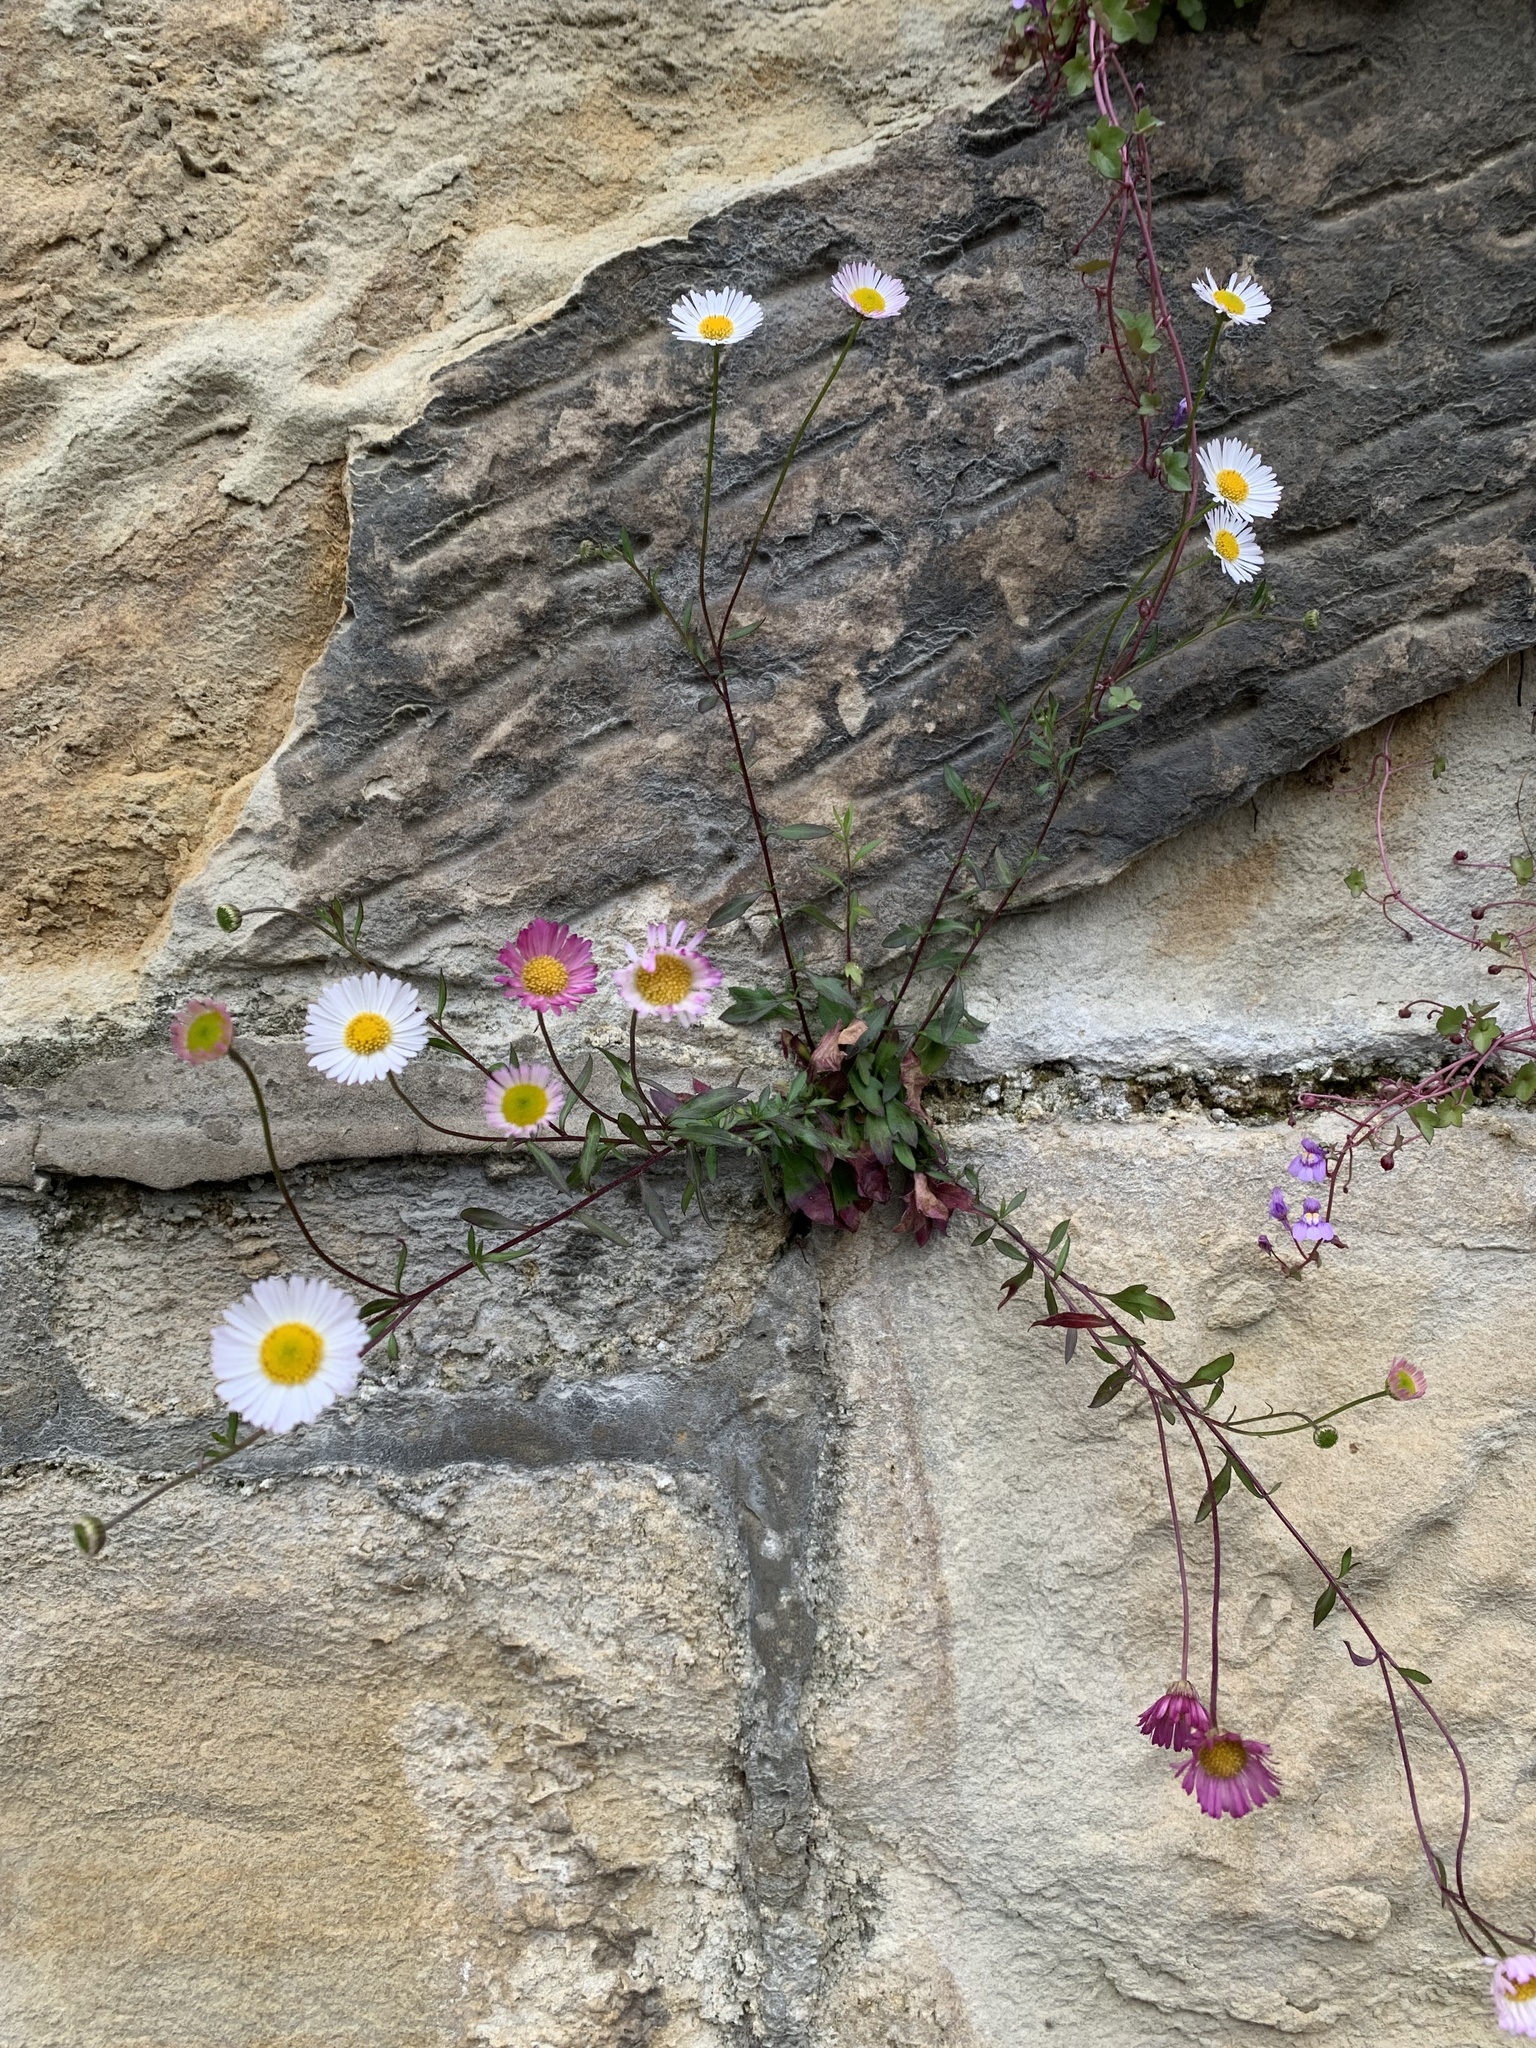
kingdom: Plantae
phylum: Tracheophyta
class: Magnoliopsida
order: Asterales
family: Asteraceae
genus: Erigeron
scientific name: Erigeron karvinskianus
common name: Mexican fleabane
